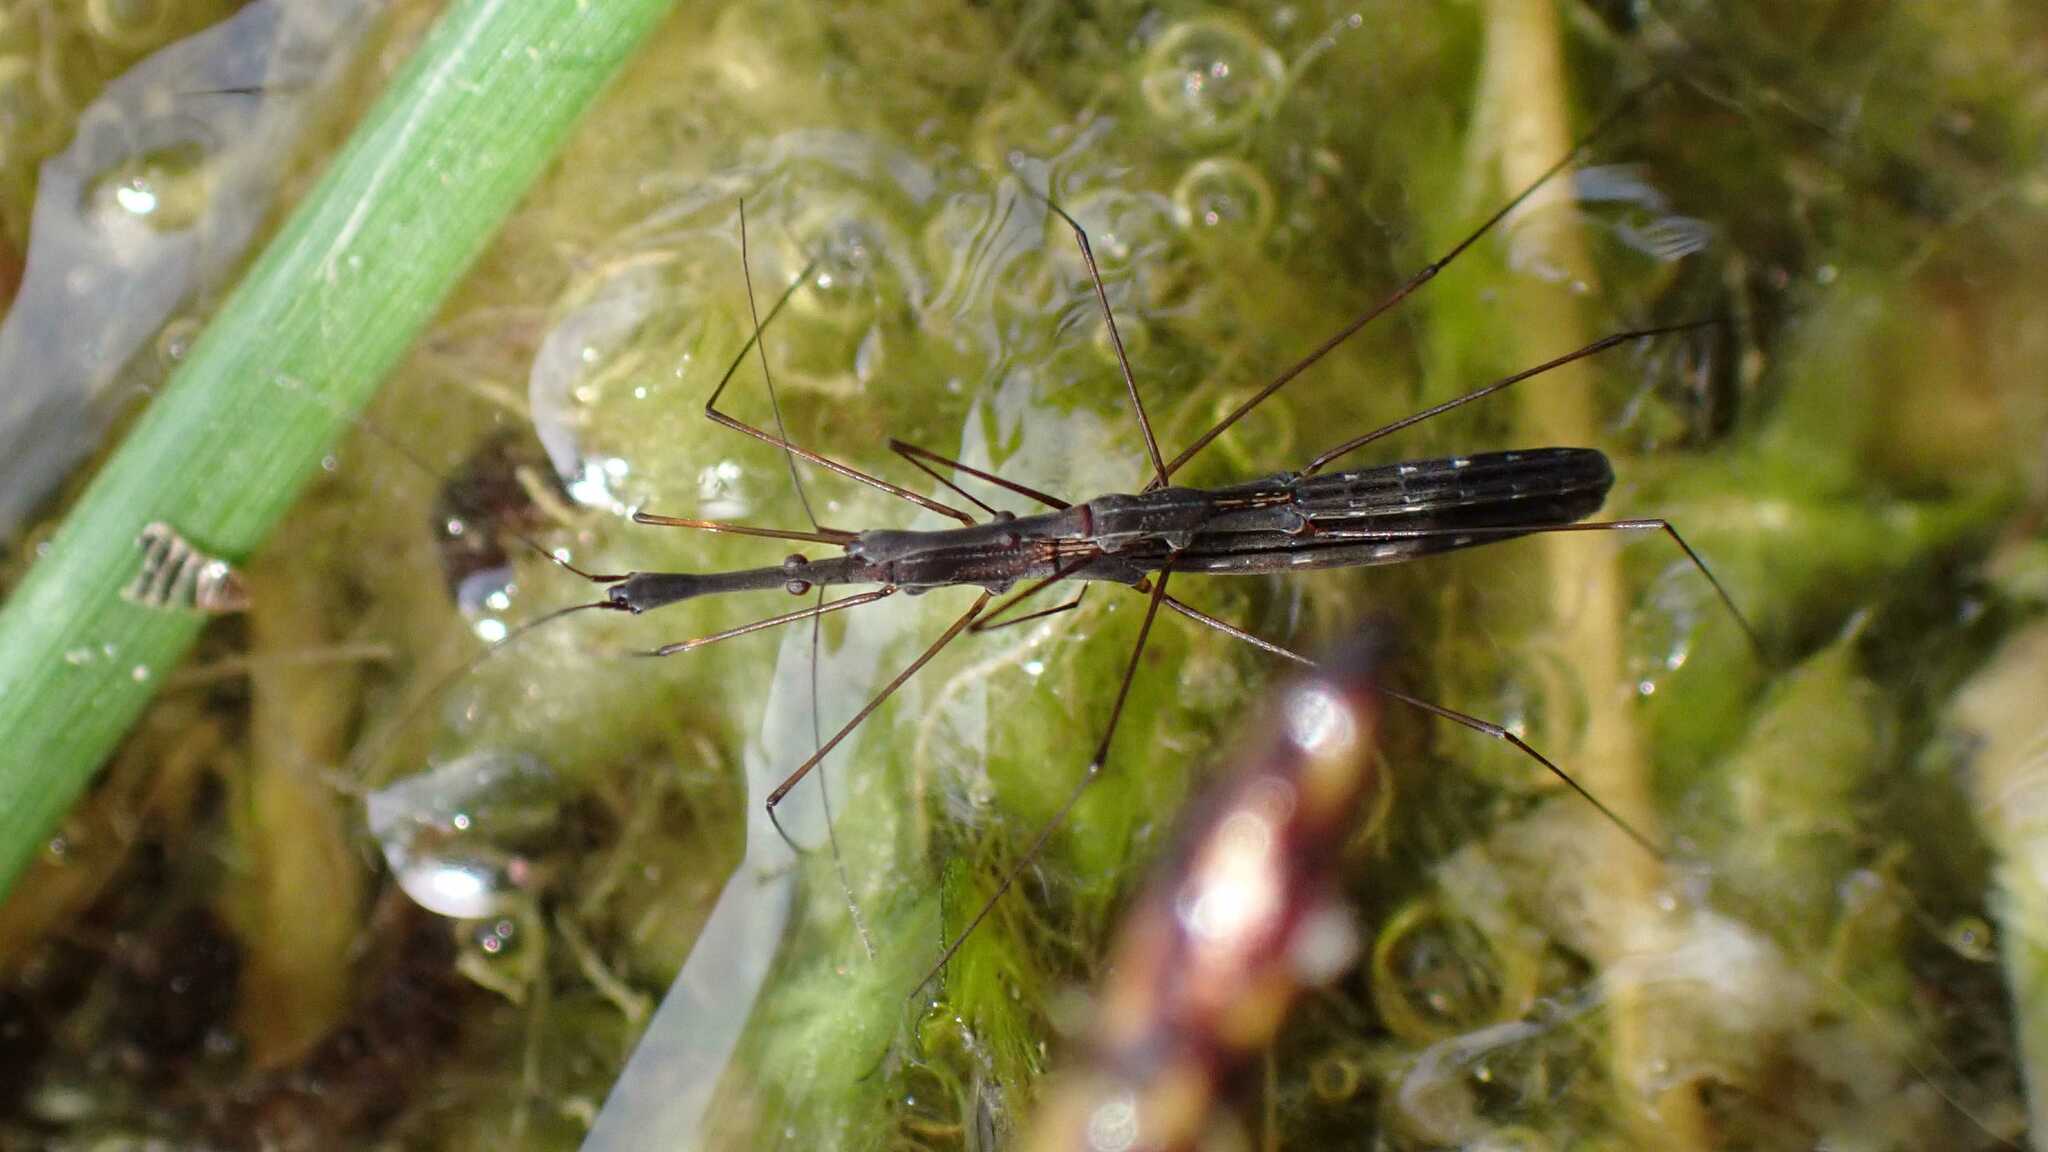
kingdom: Animalia
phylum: Arthropoda
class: Insecta
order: Hemiptera
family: Hydrometridae
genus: Hydrometra
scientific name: Hydrometra stagnorum
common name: Water measurer
